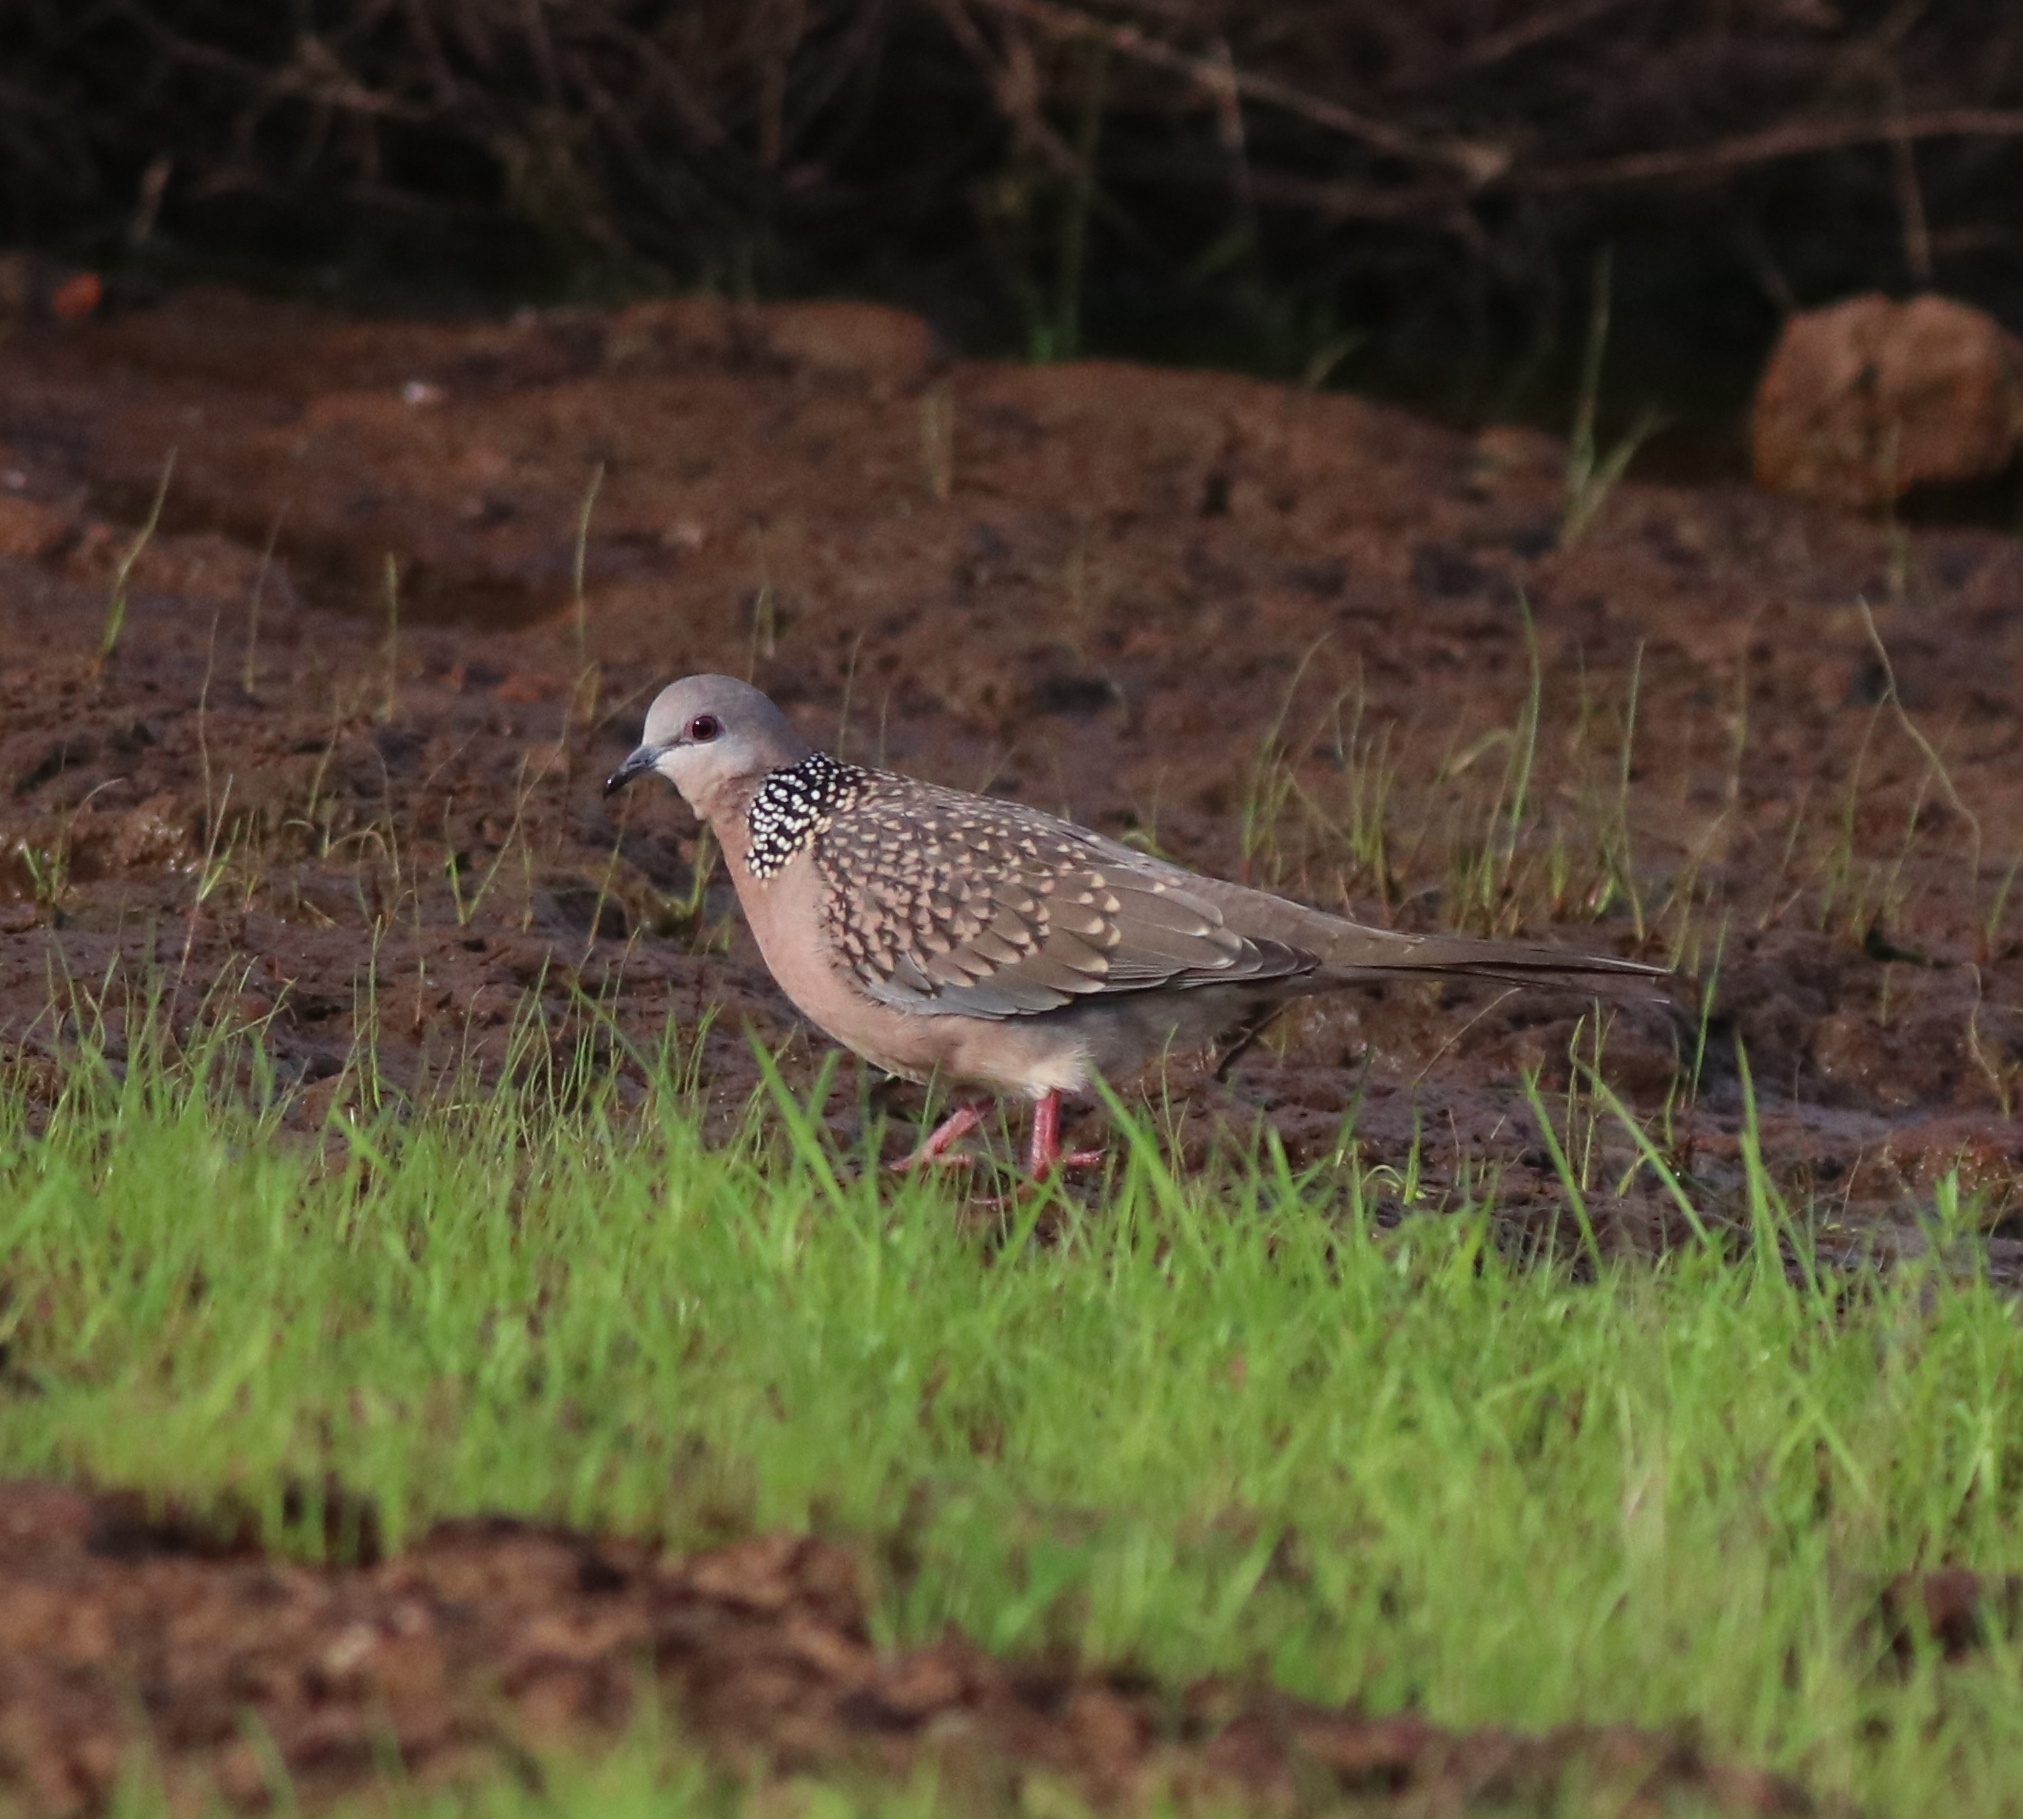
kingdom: Animalia
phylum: Chordata
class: Aves
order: Columbiformes
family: Columbidae
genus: Spilopelia
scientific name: Spilopelia chinensis
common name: Spotted dove
